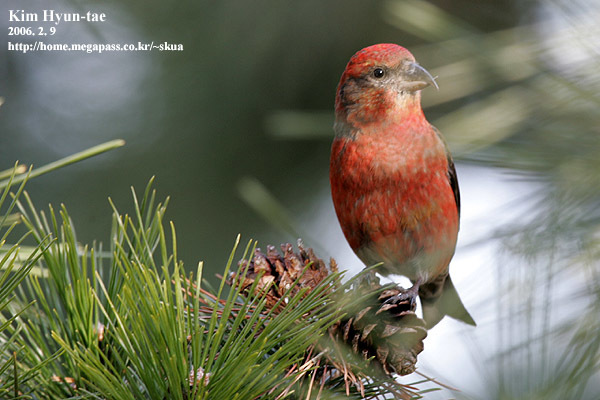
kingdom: Animalia
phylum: Chordata
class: Aves
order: Passeriformes
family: Fringillidae
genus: Loxia
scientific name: Loxia curvirostra
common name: Red crossbill
